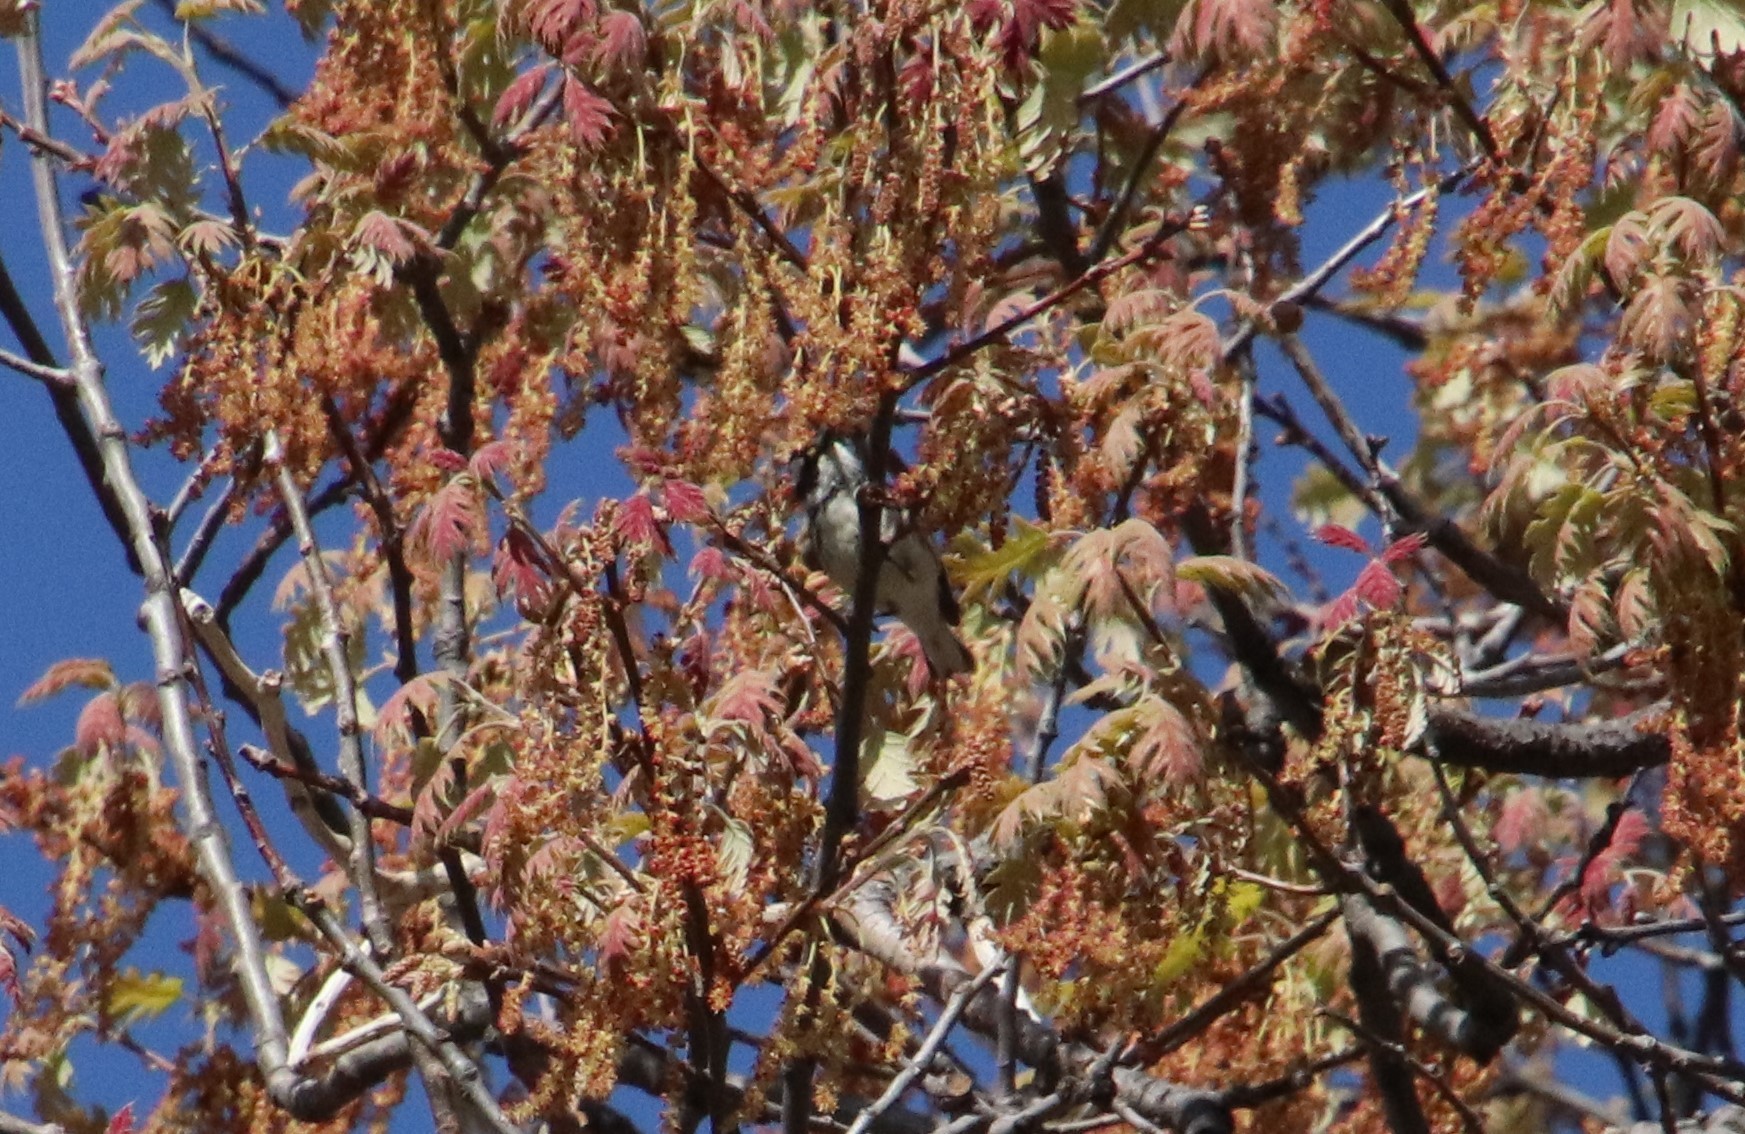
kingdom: Animalia
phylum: Chordata
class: Aves
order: Passeriformes
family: Parulidae
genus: Setophaga
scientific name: Setophaga nigrescens
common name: Black-throated gray warbler
